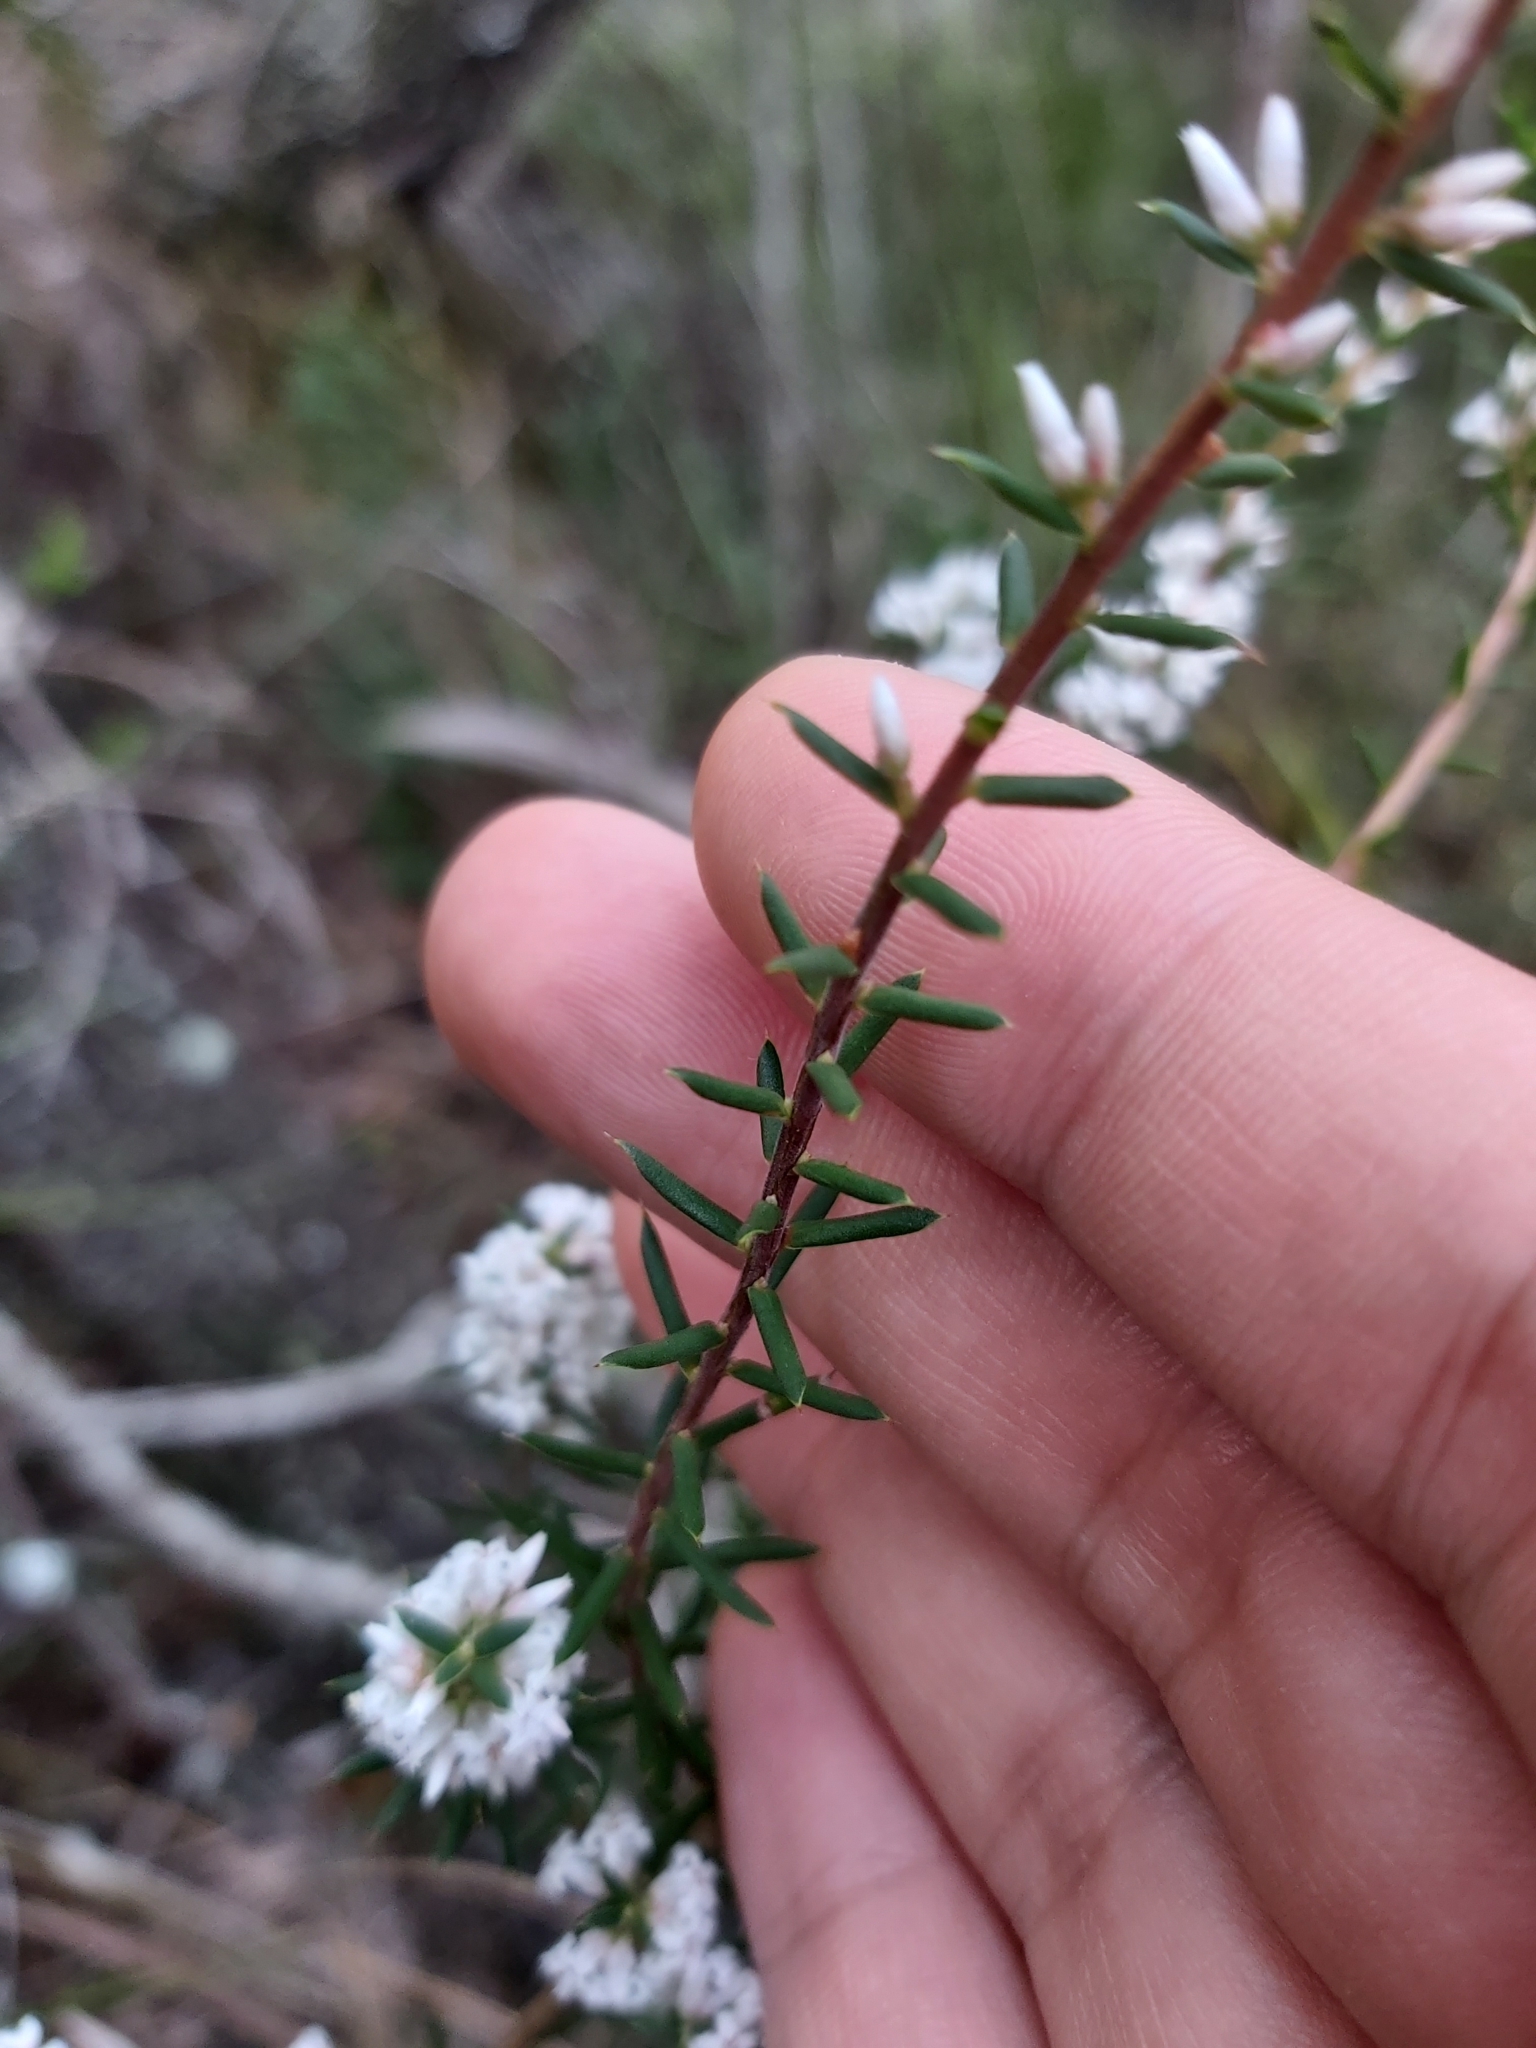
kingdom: Plantae
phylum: Tracheophyta
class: Magnoliopsida
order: Ericales
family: Ericaceae
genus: Styphelia
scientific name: Styphelia ericoides
